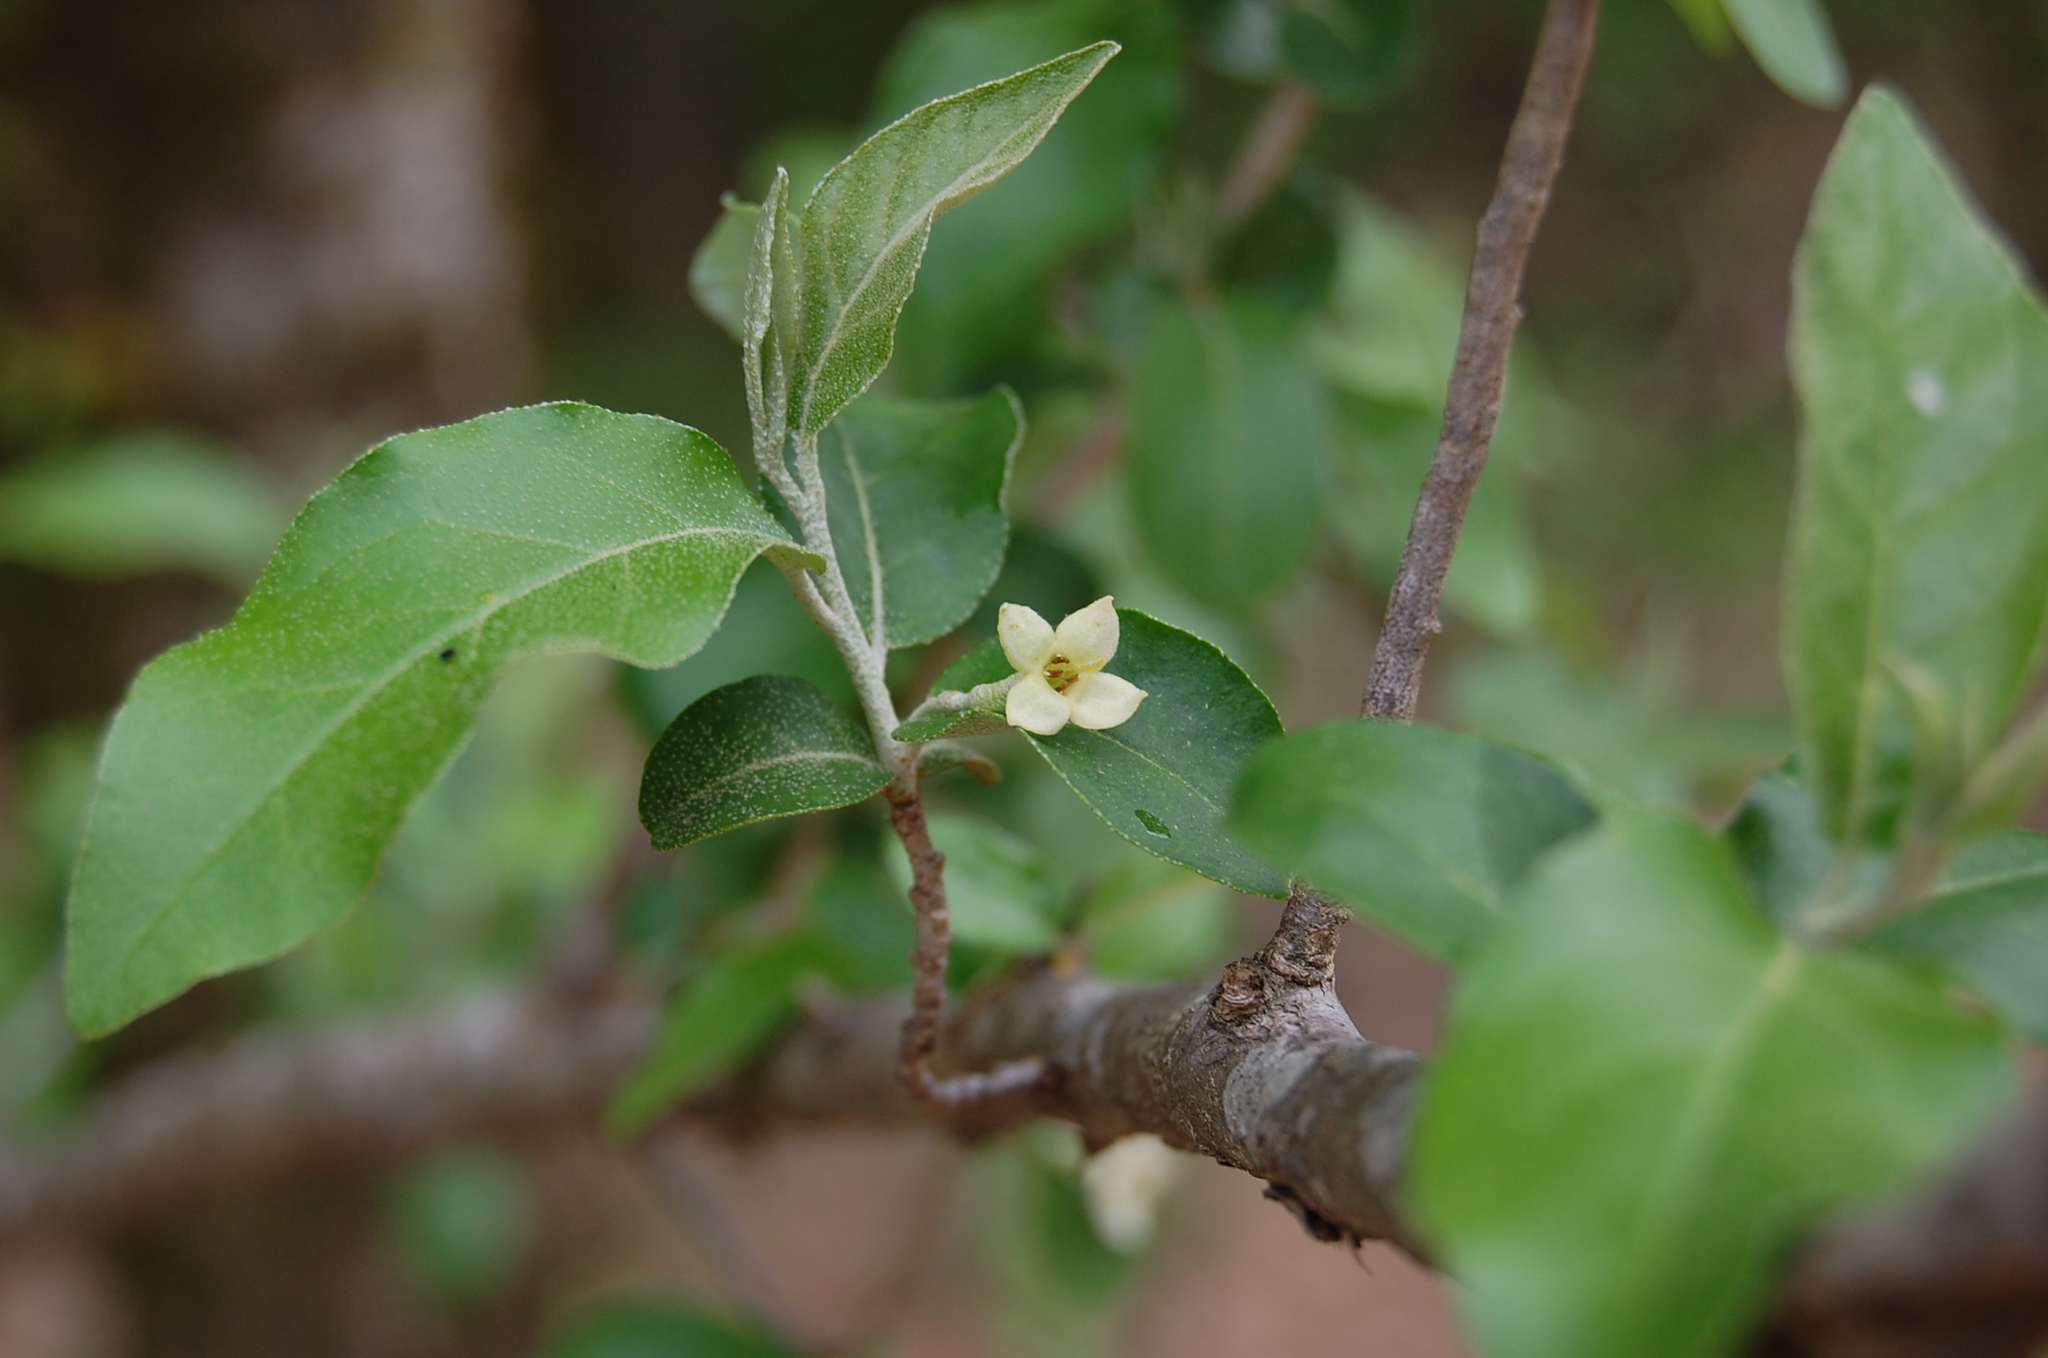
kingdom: Plantae
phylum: Tracheophyta
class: Magnoliopsida
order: Rosales
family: Elaeagnaceae
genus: Elaeagnus
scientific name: Elaeagnus umbellata
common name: Autumn olive
